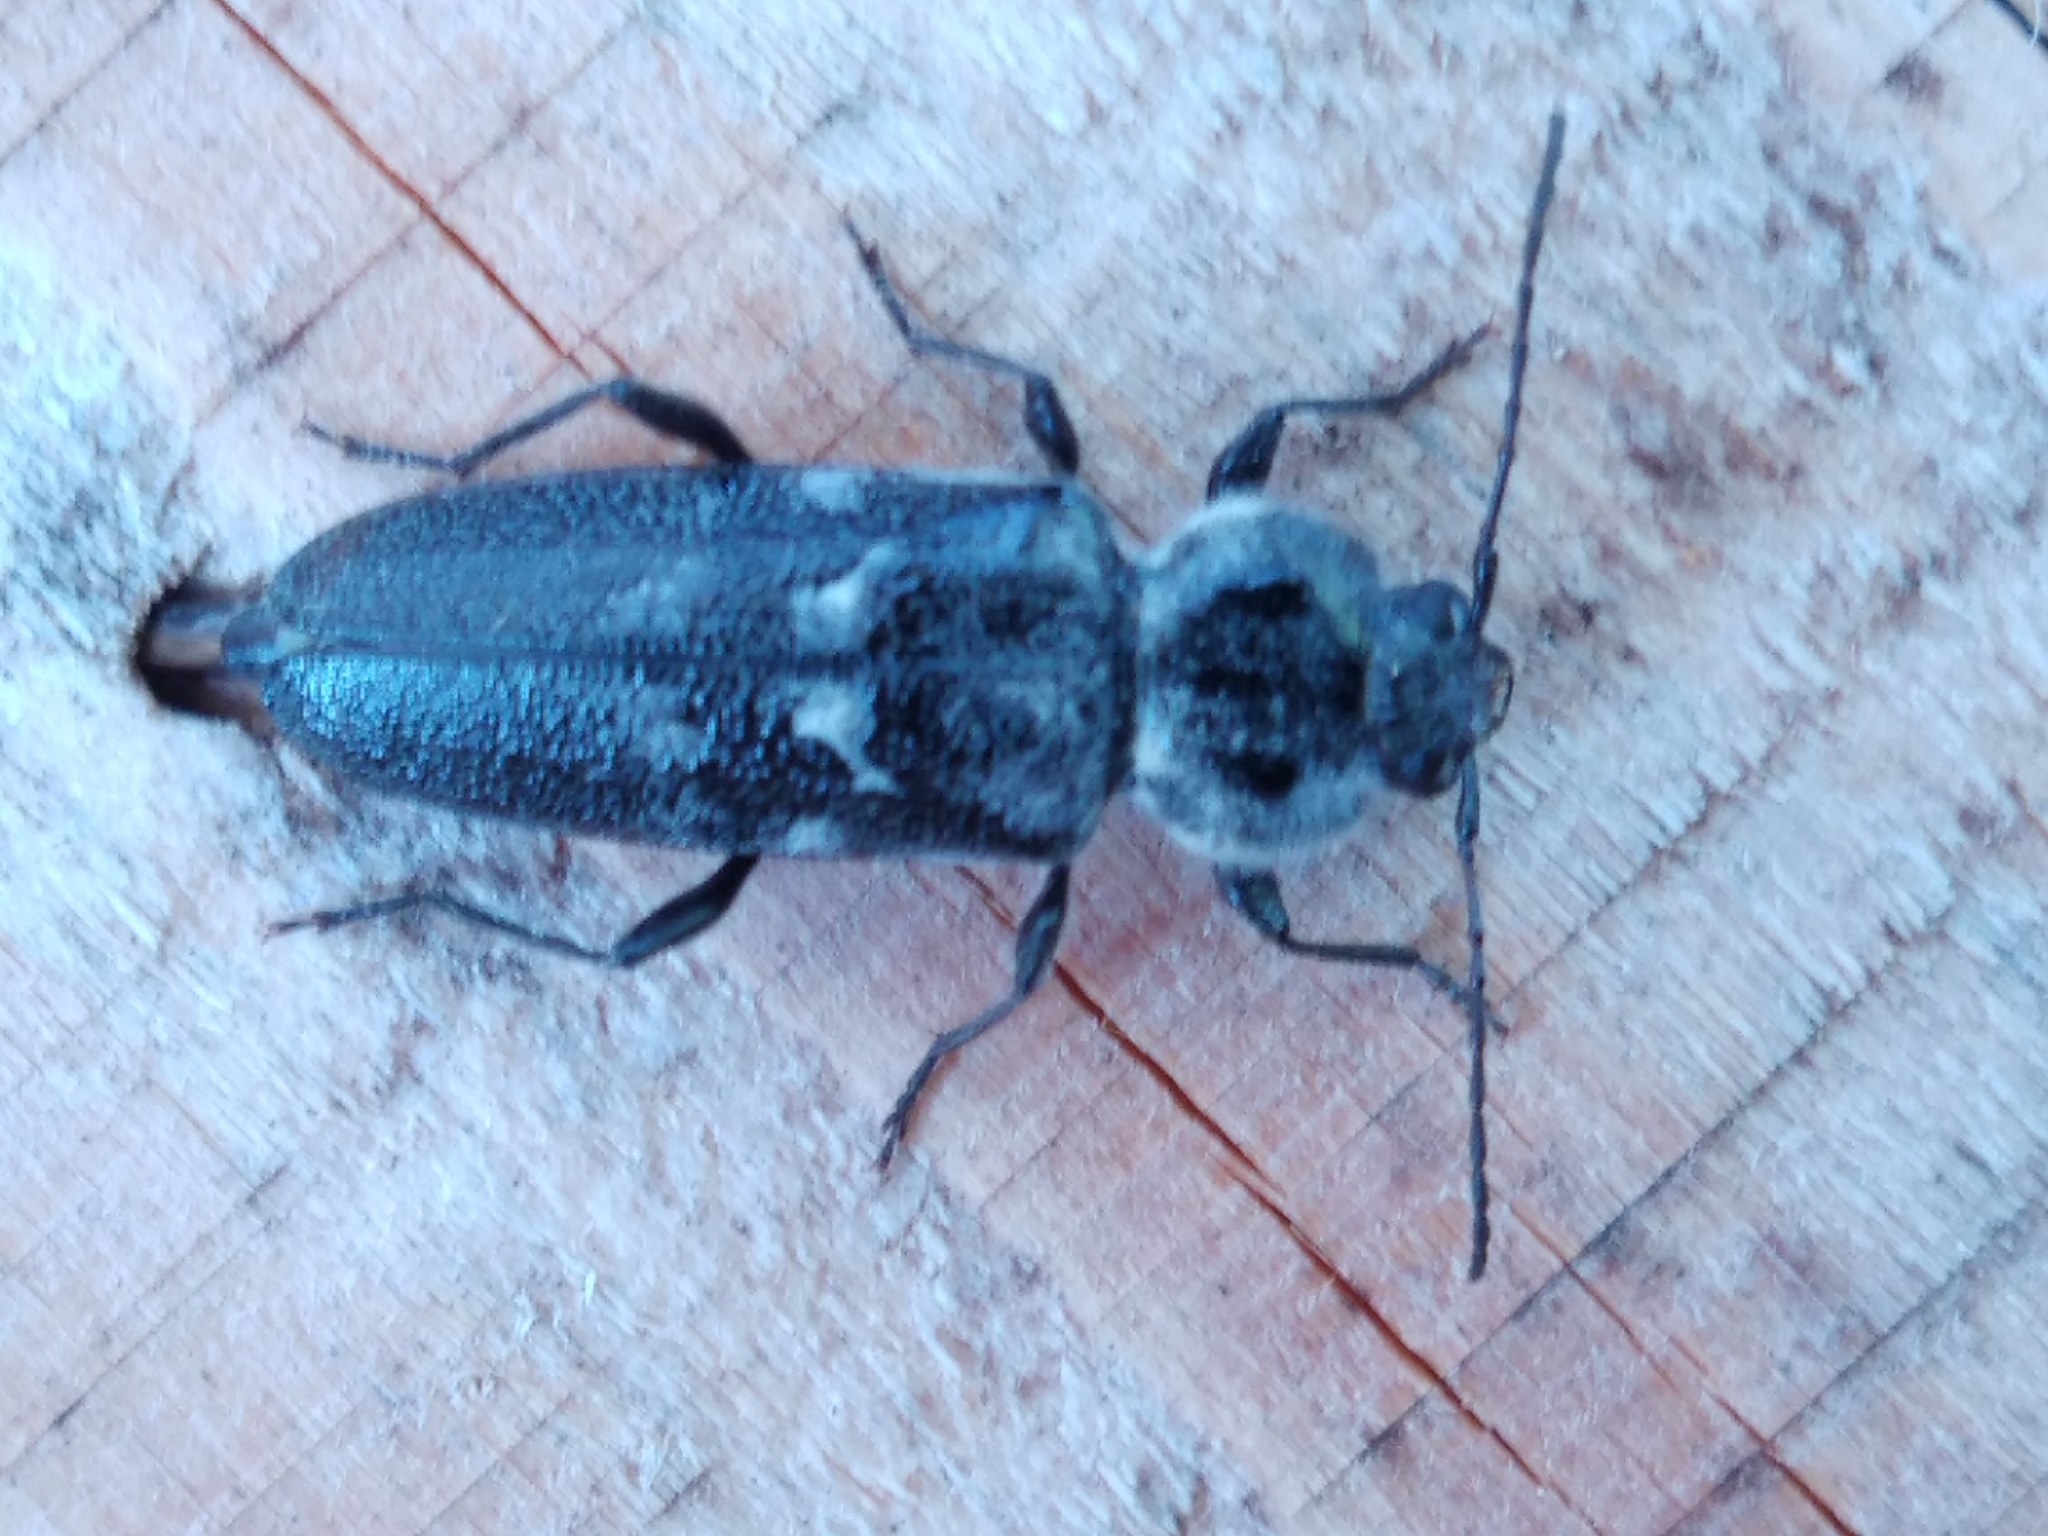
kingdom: Animalia
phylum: Arthropoda
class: Insecta
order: Coleoptera
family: Cerambycidae
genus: Hylotrupes
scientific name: Hylotrupes bajulus
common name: Old house borer
